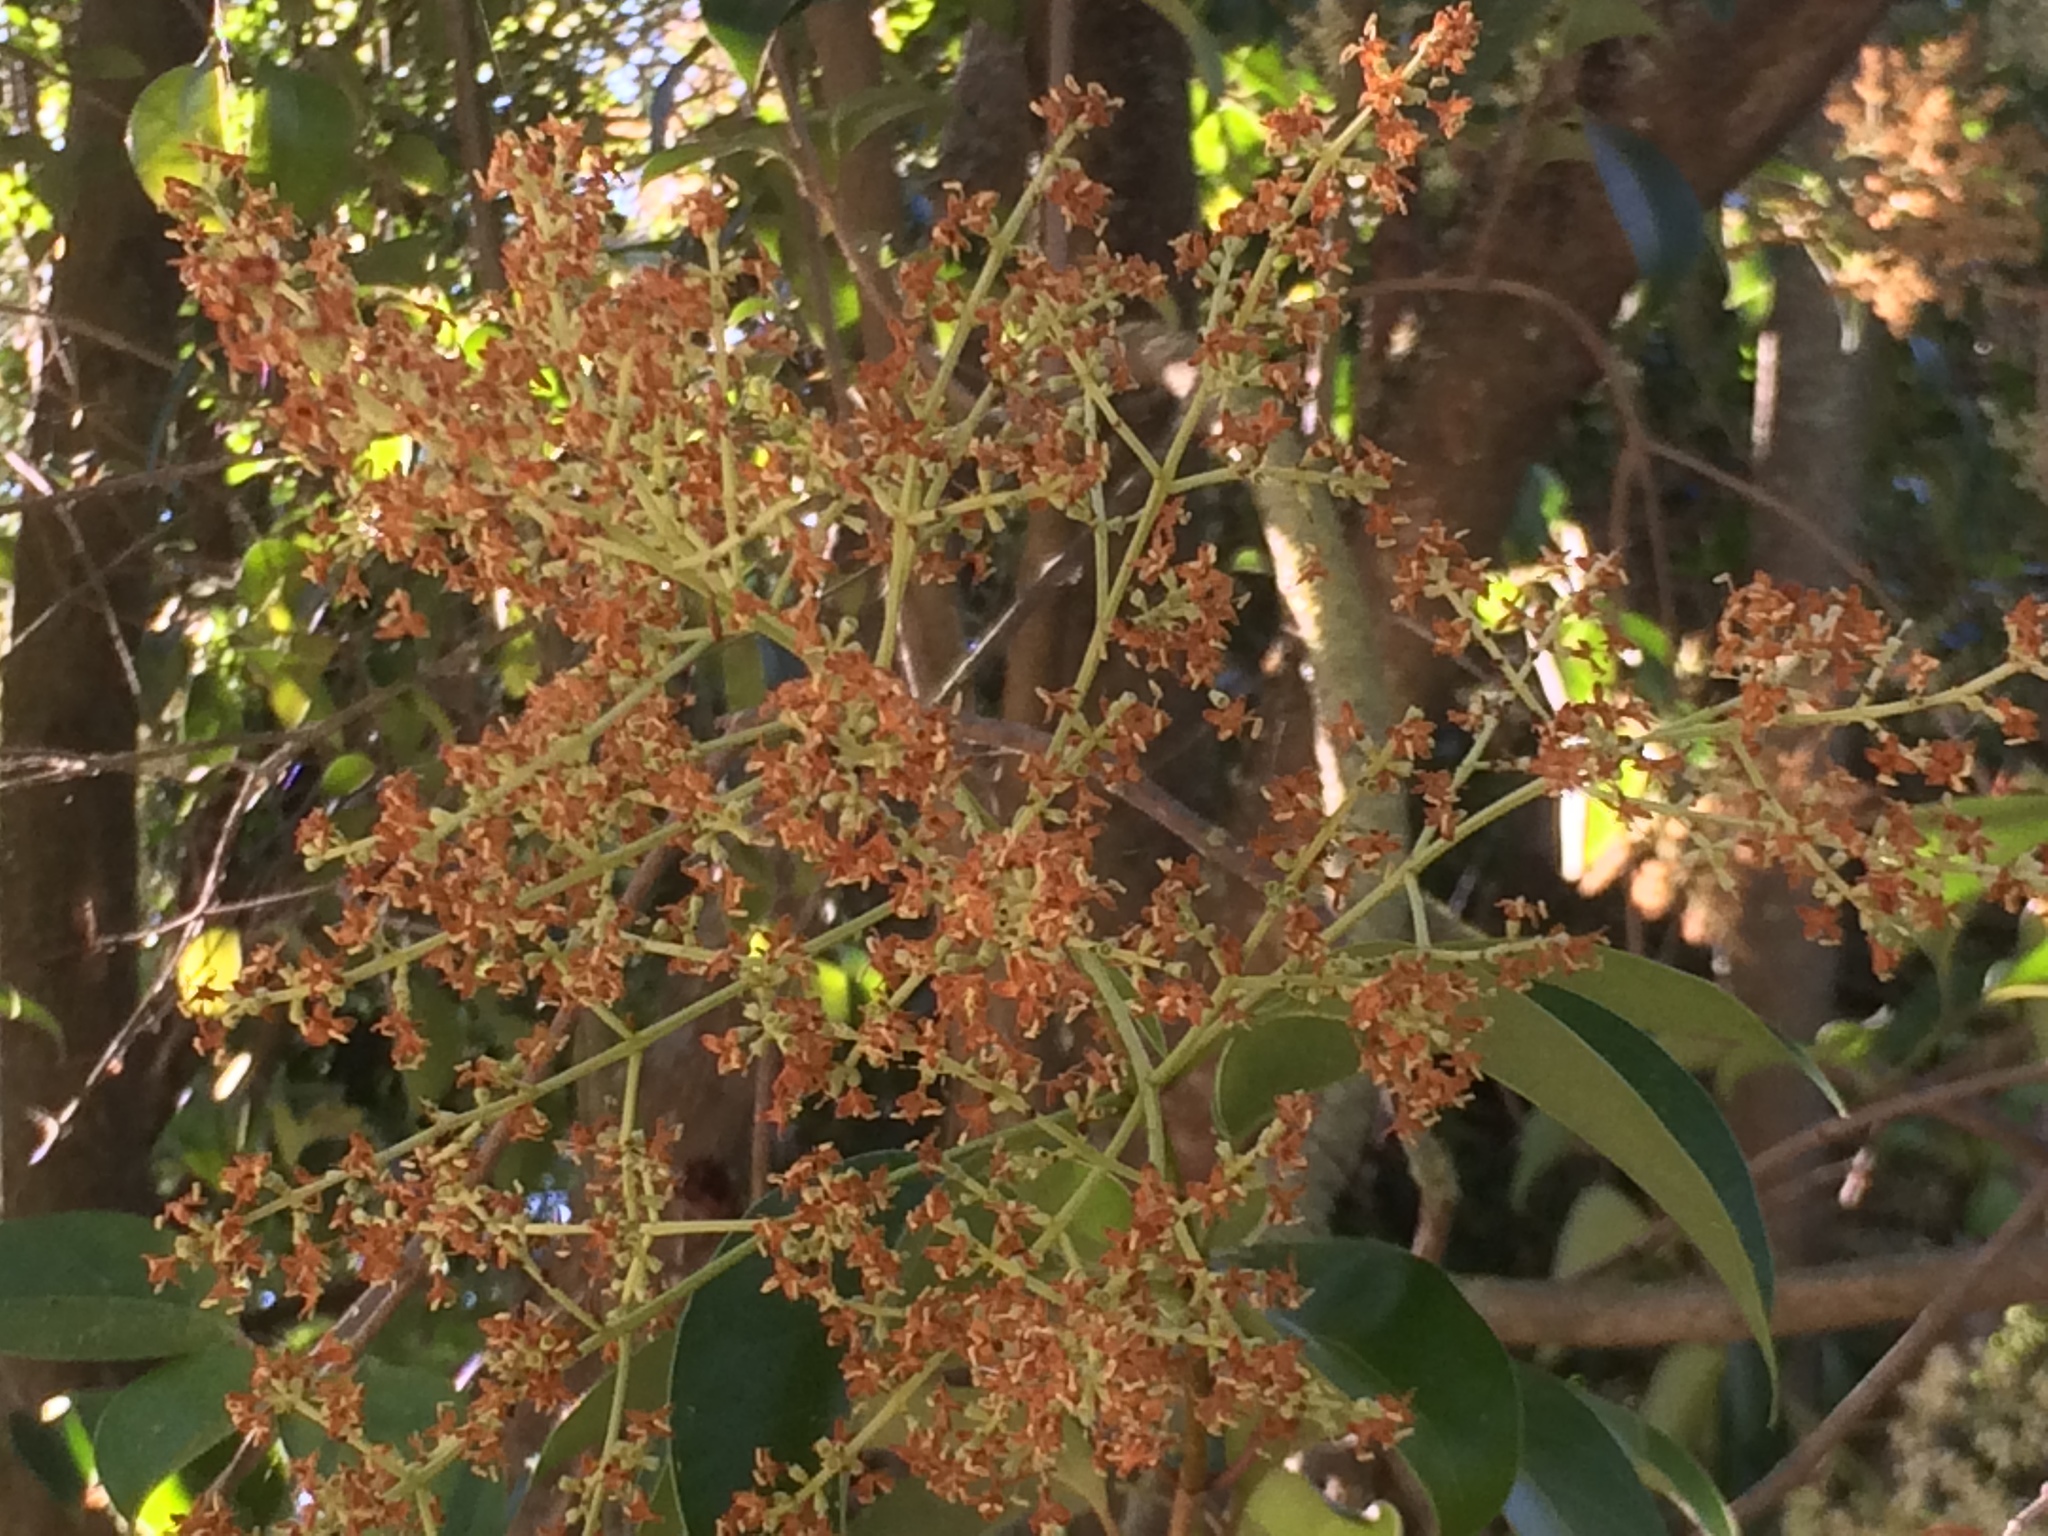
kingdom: Plantae
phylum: Tracheophyta
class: Magnoliopsida
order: Lamiales
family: Oleaceae
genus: Ligustrum
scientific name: Ligustrum lucidum
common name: Glossy privet
